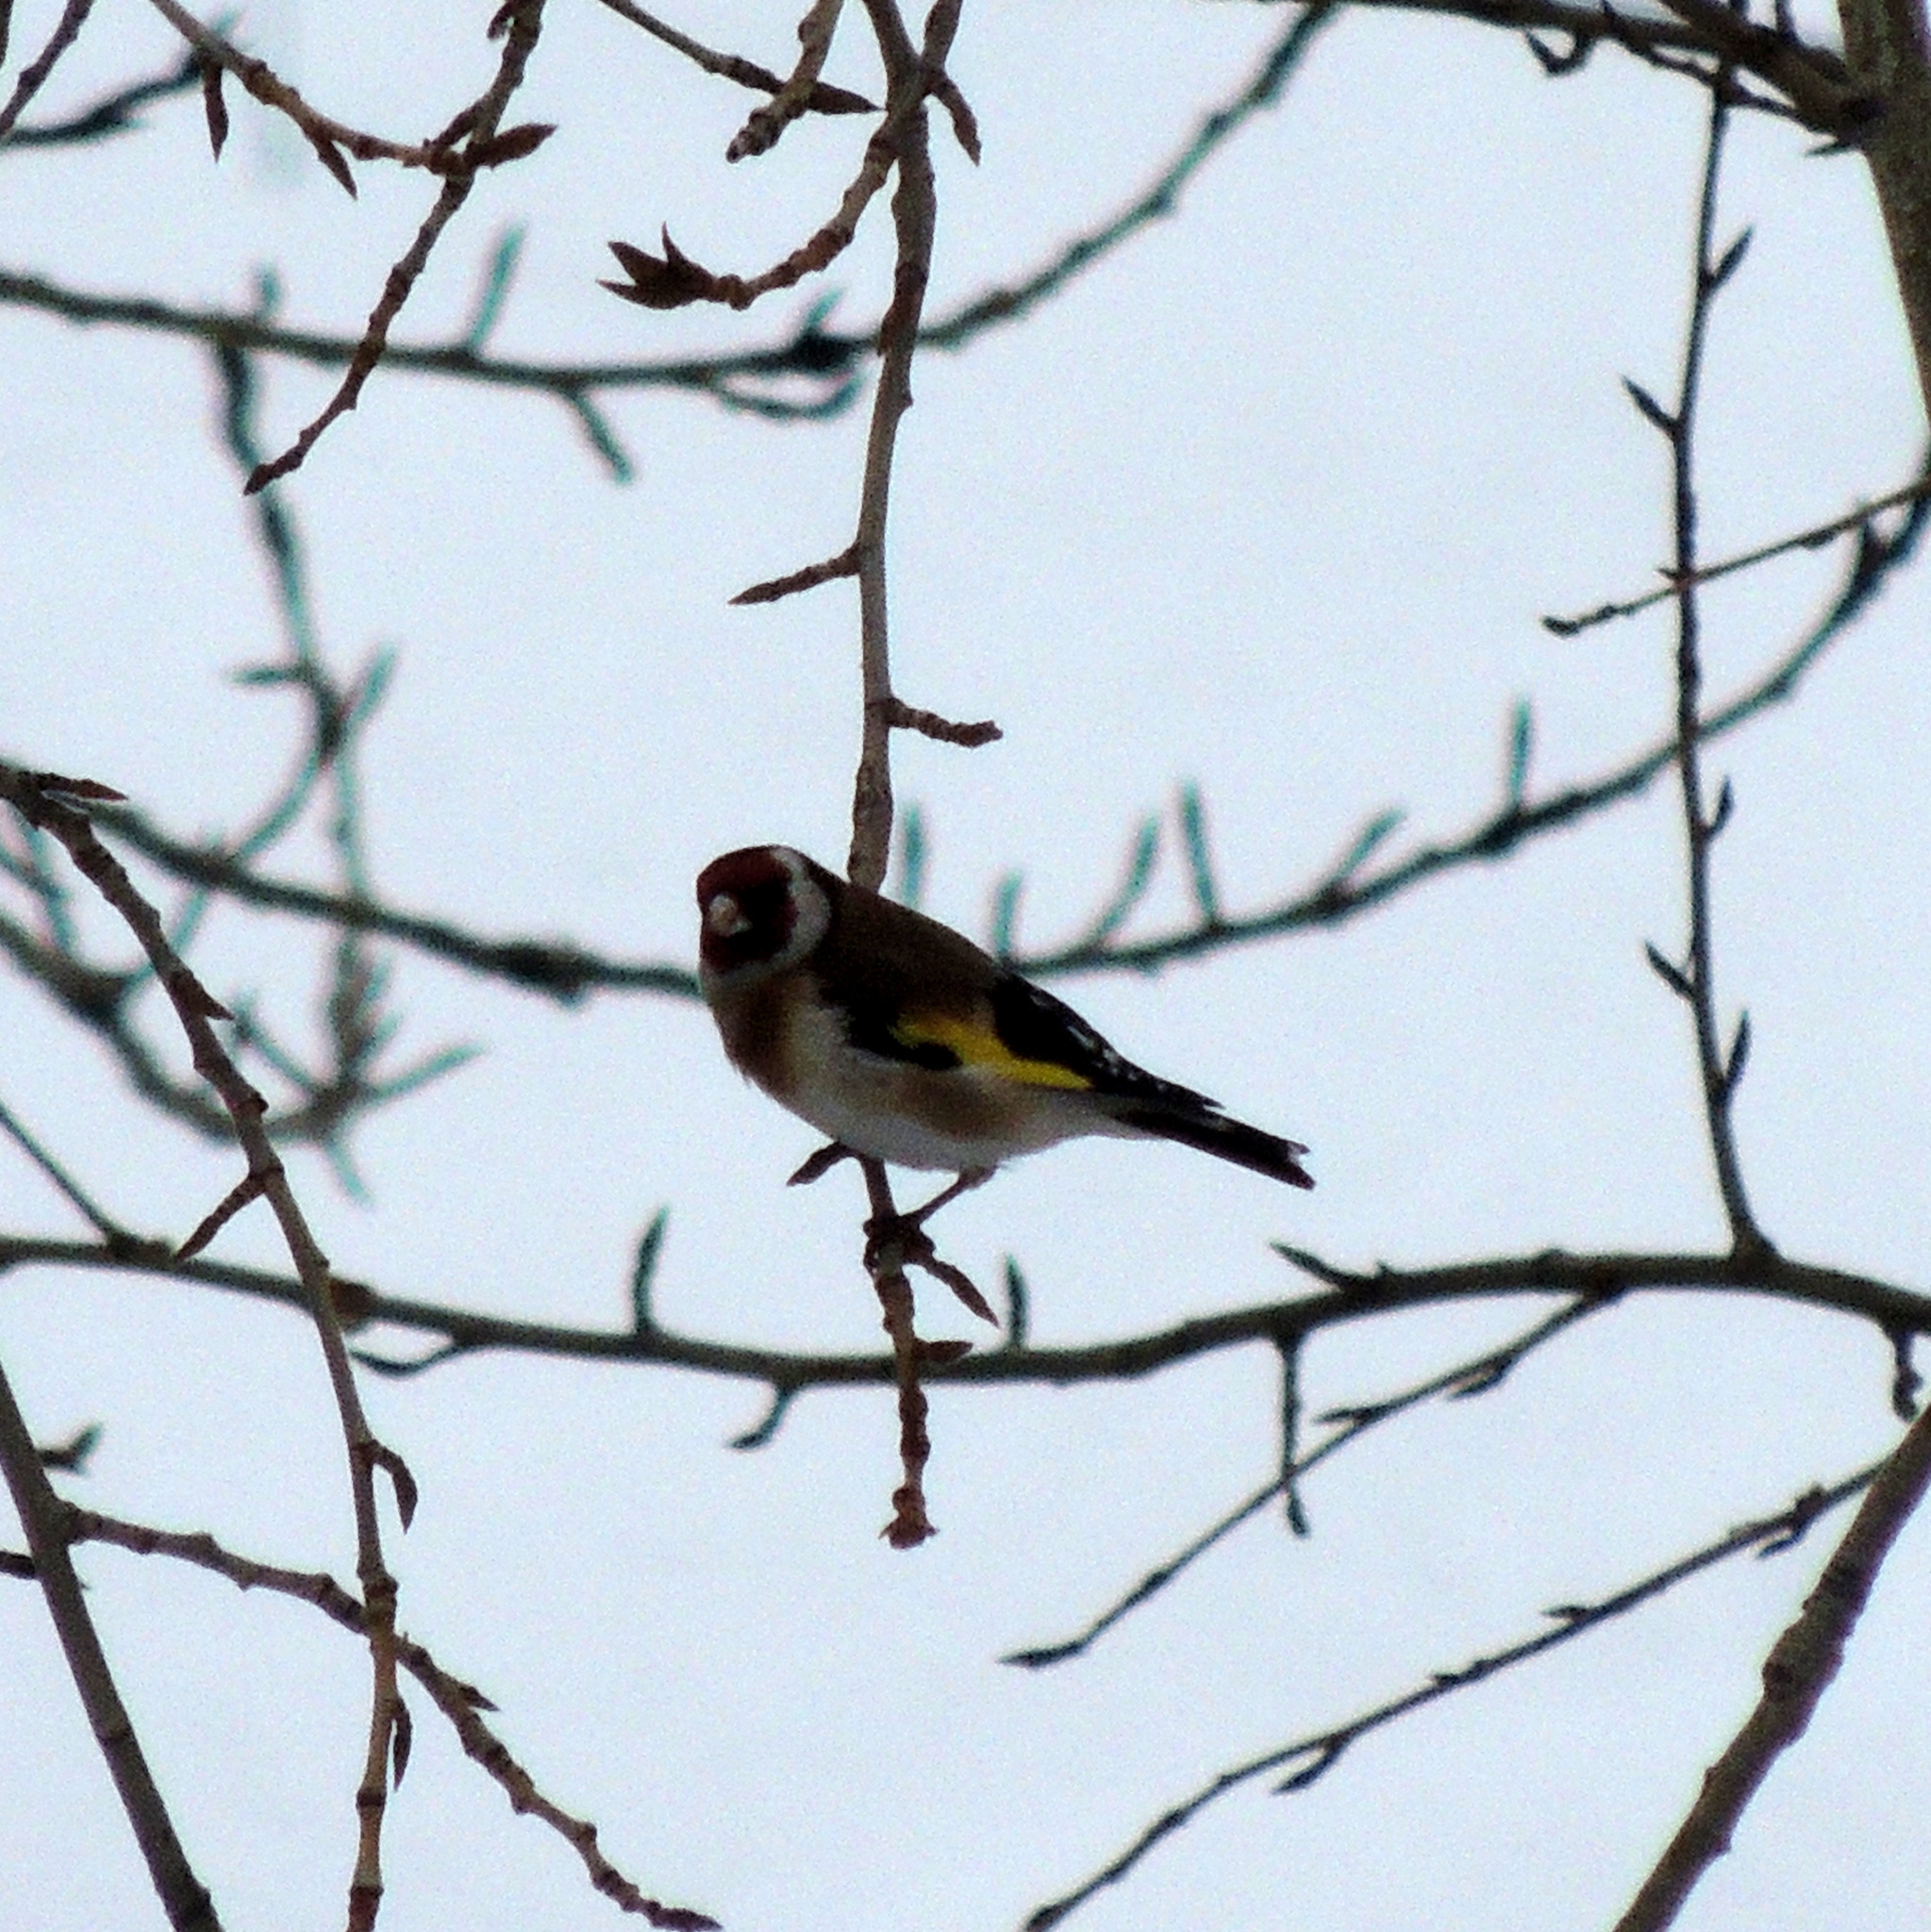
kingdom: Animalia
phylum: Chordata
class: Aves
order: Passeriformes
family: Fringillidae
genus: Carduelis
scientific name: Carduelis carduelis
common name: European goldfinch
